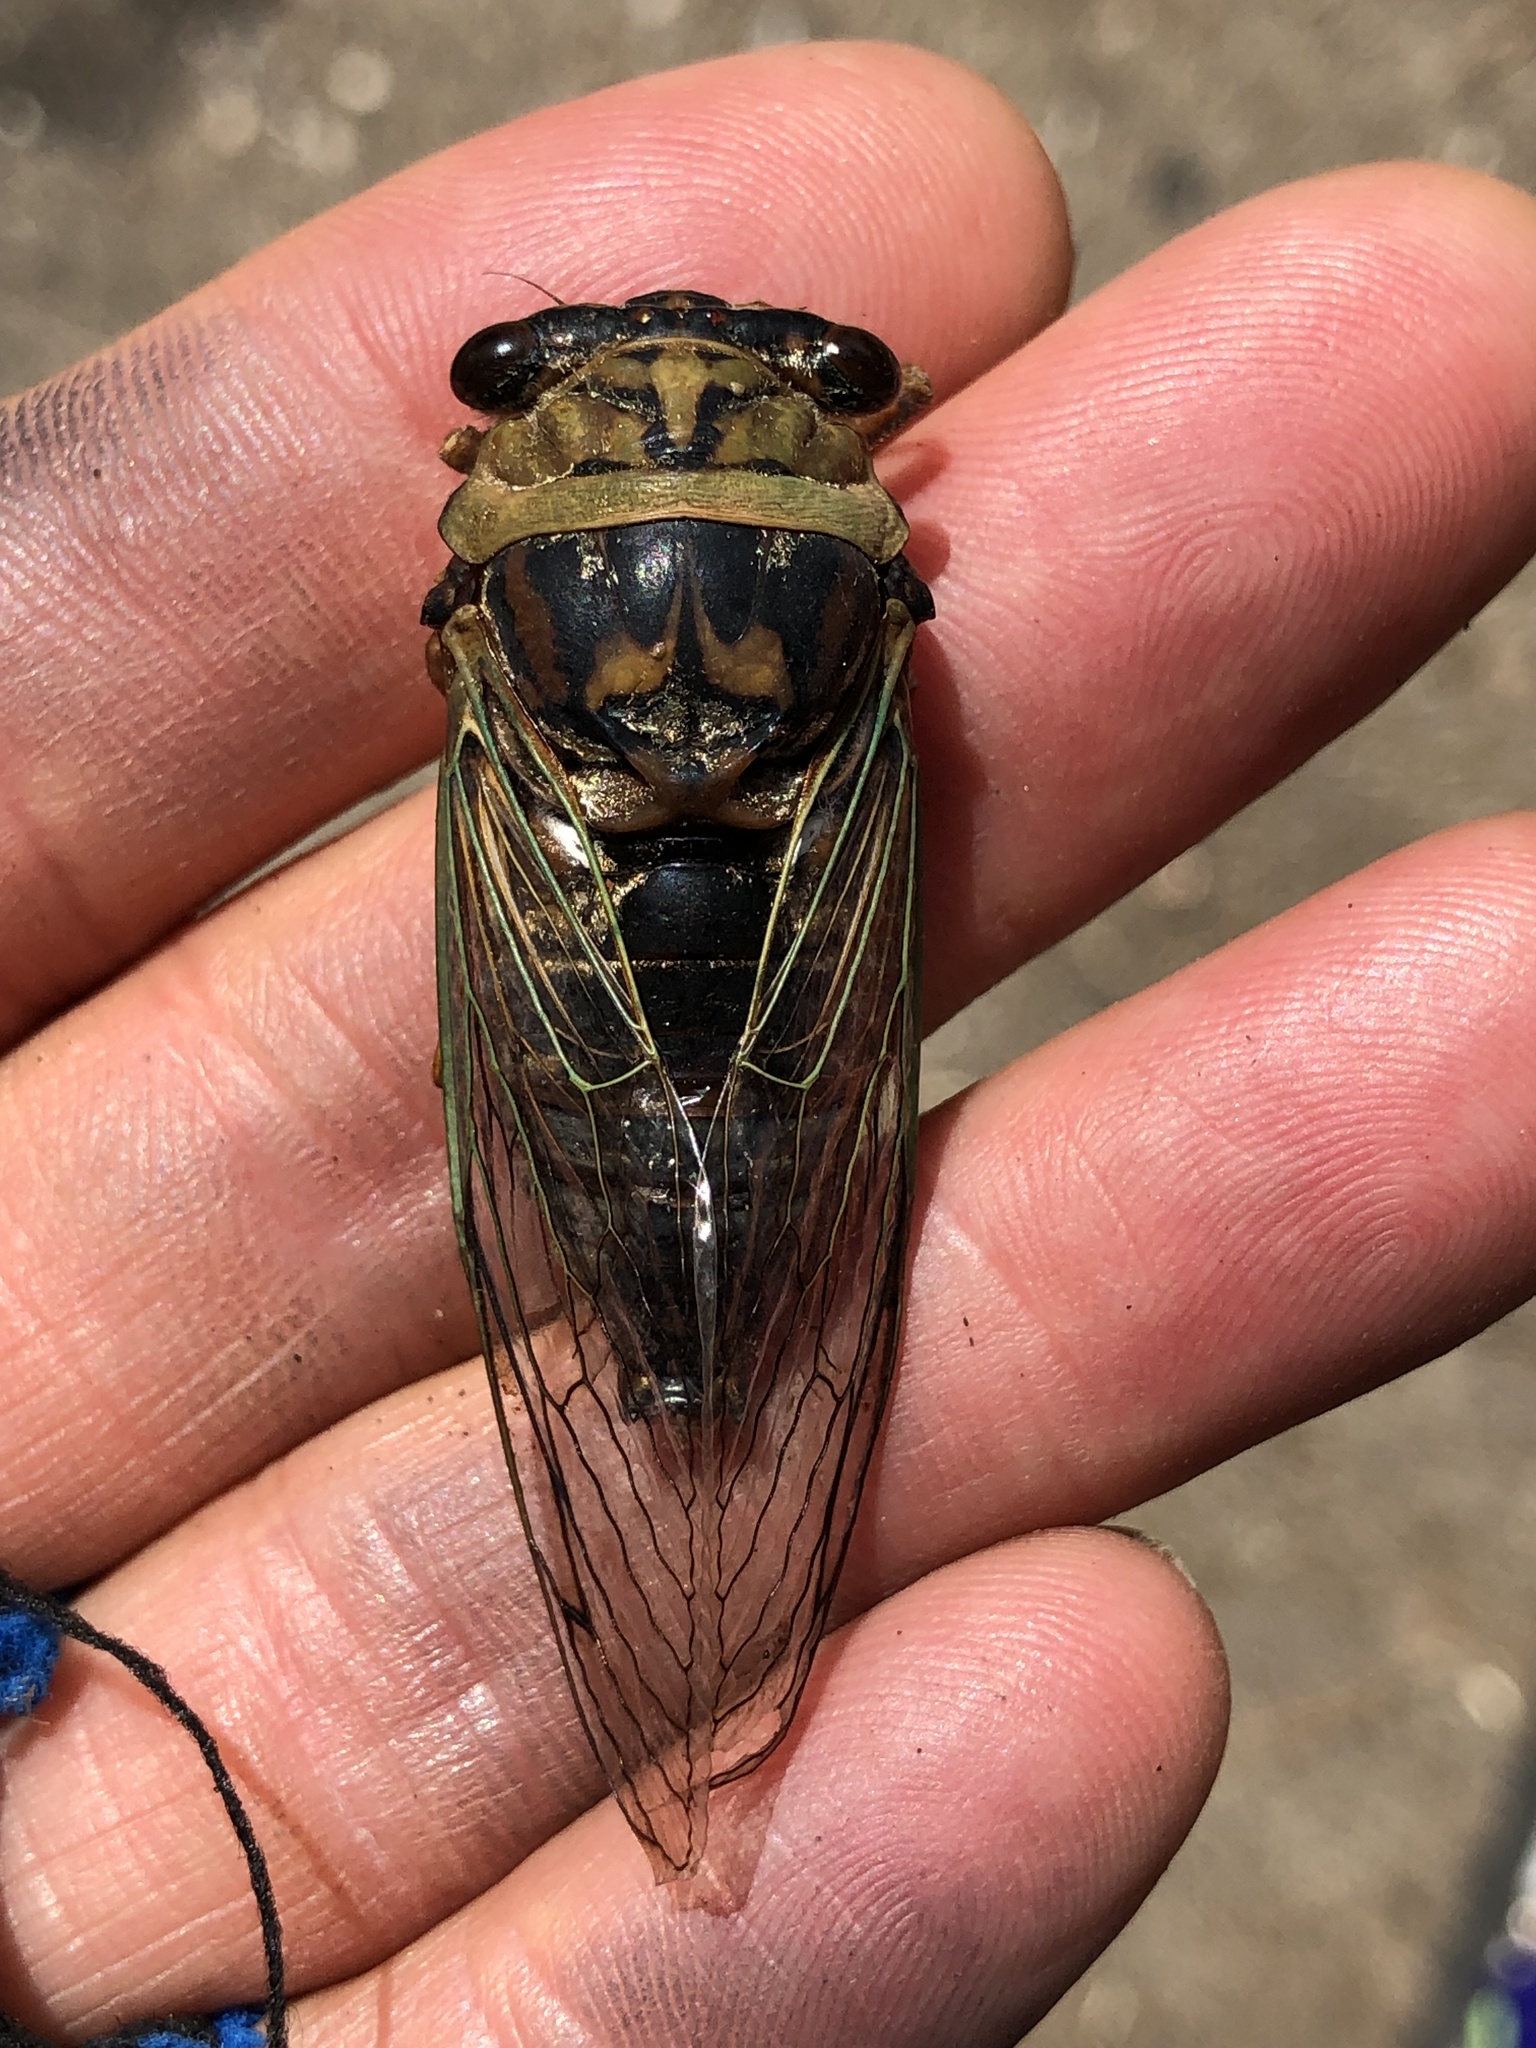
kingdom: Animalia
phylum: Arthropoda
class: Insecta
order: Hemiptera
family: Cicadidae
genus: Megatibicen
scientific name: Megatibicen resh
